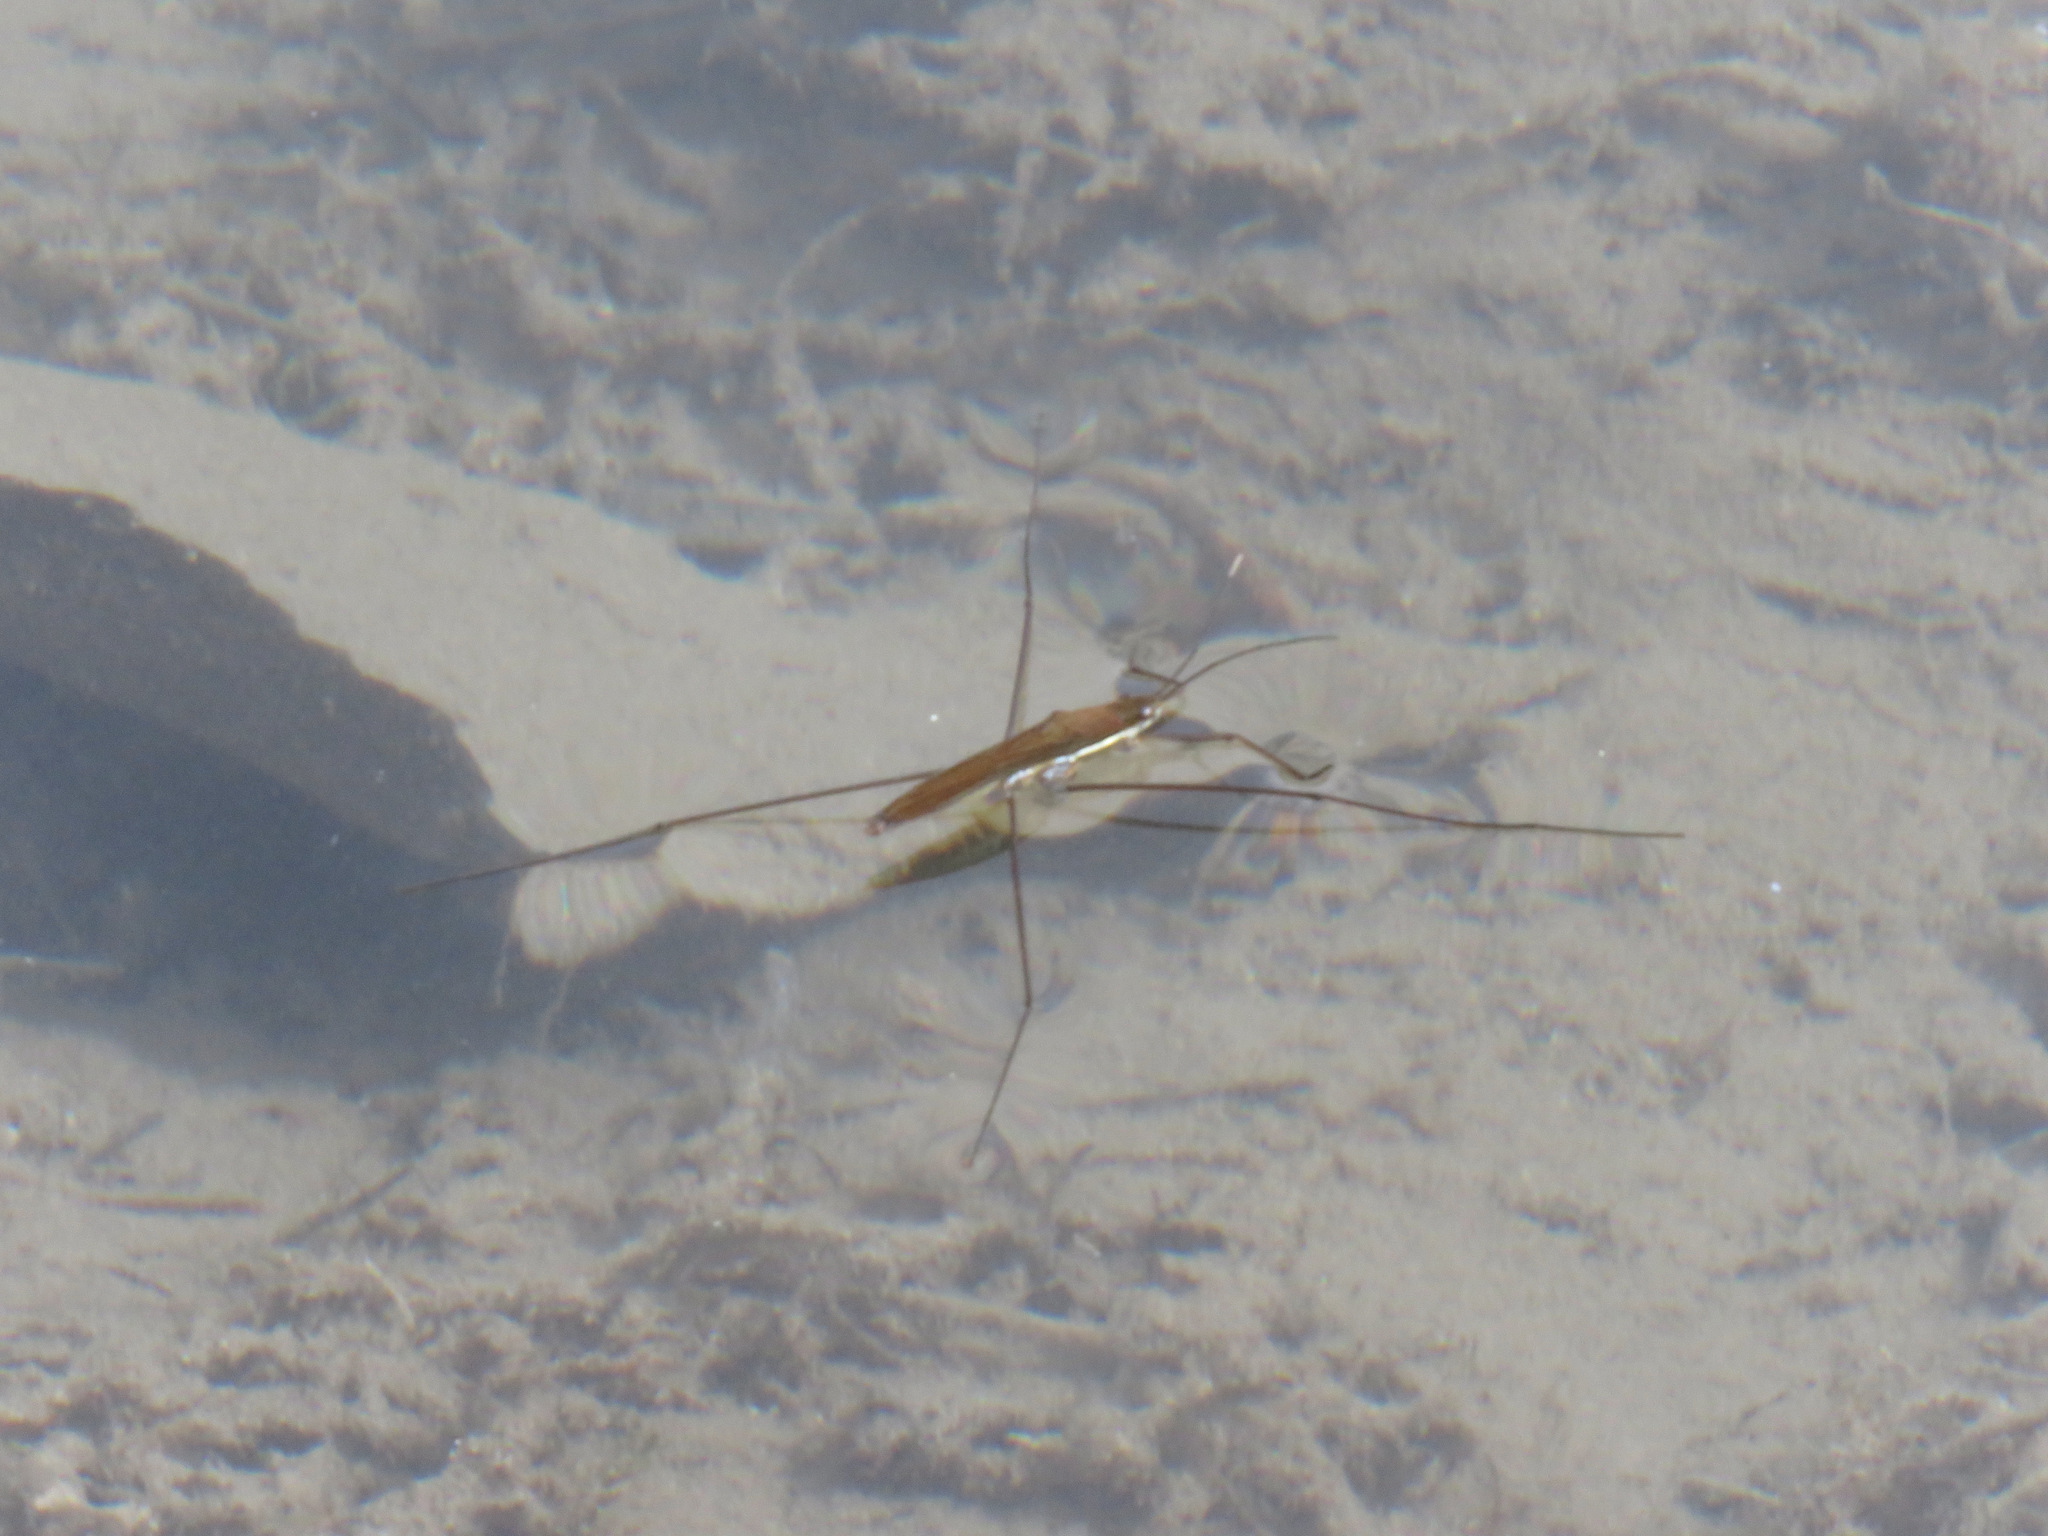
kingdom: Animalia
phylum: Arthropoda
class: Insecta
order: Hemiptera
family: Gerridae
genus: Limnoporus
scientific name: Limnoporus
